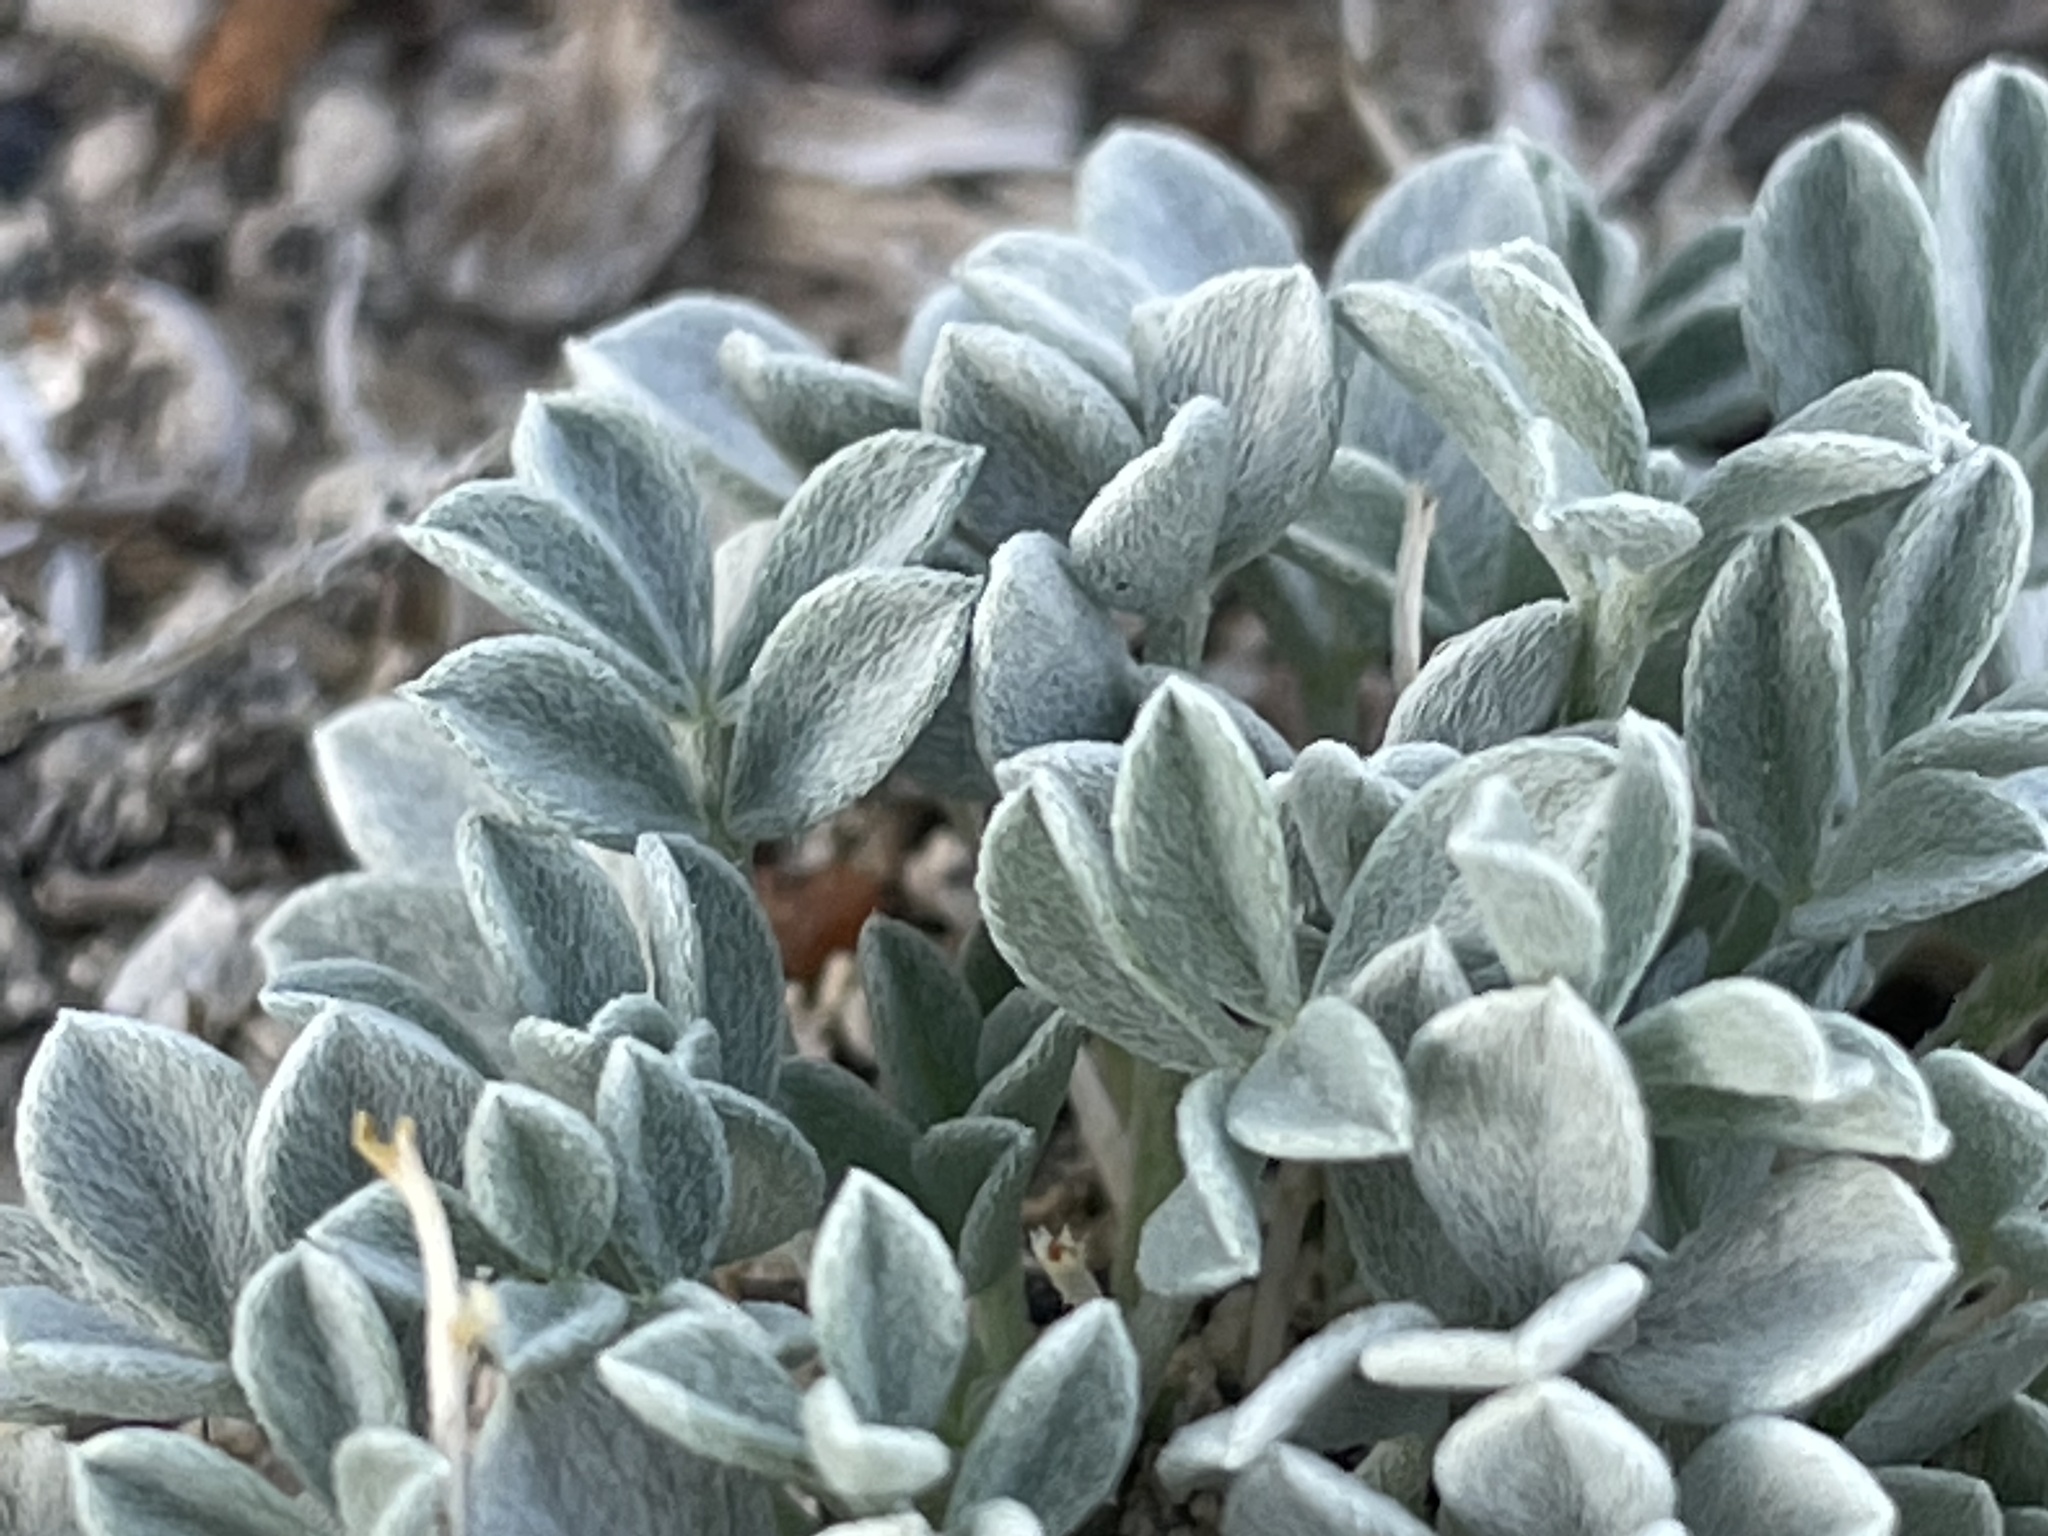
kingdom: Plantae
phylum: Tracheophyta
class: Magnoliopsida
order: Fabales
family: Fabaceae
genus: Astragalus
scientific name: Astragalus calycosus
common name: King's milkvetch
